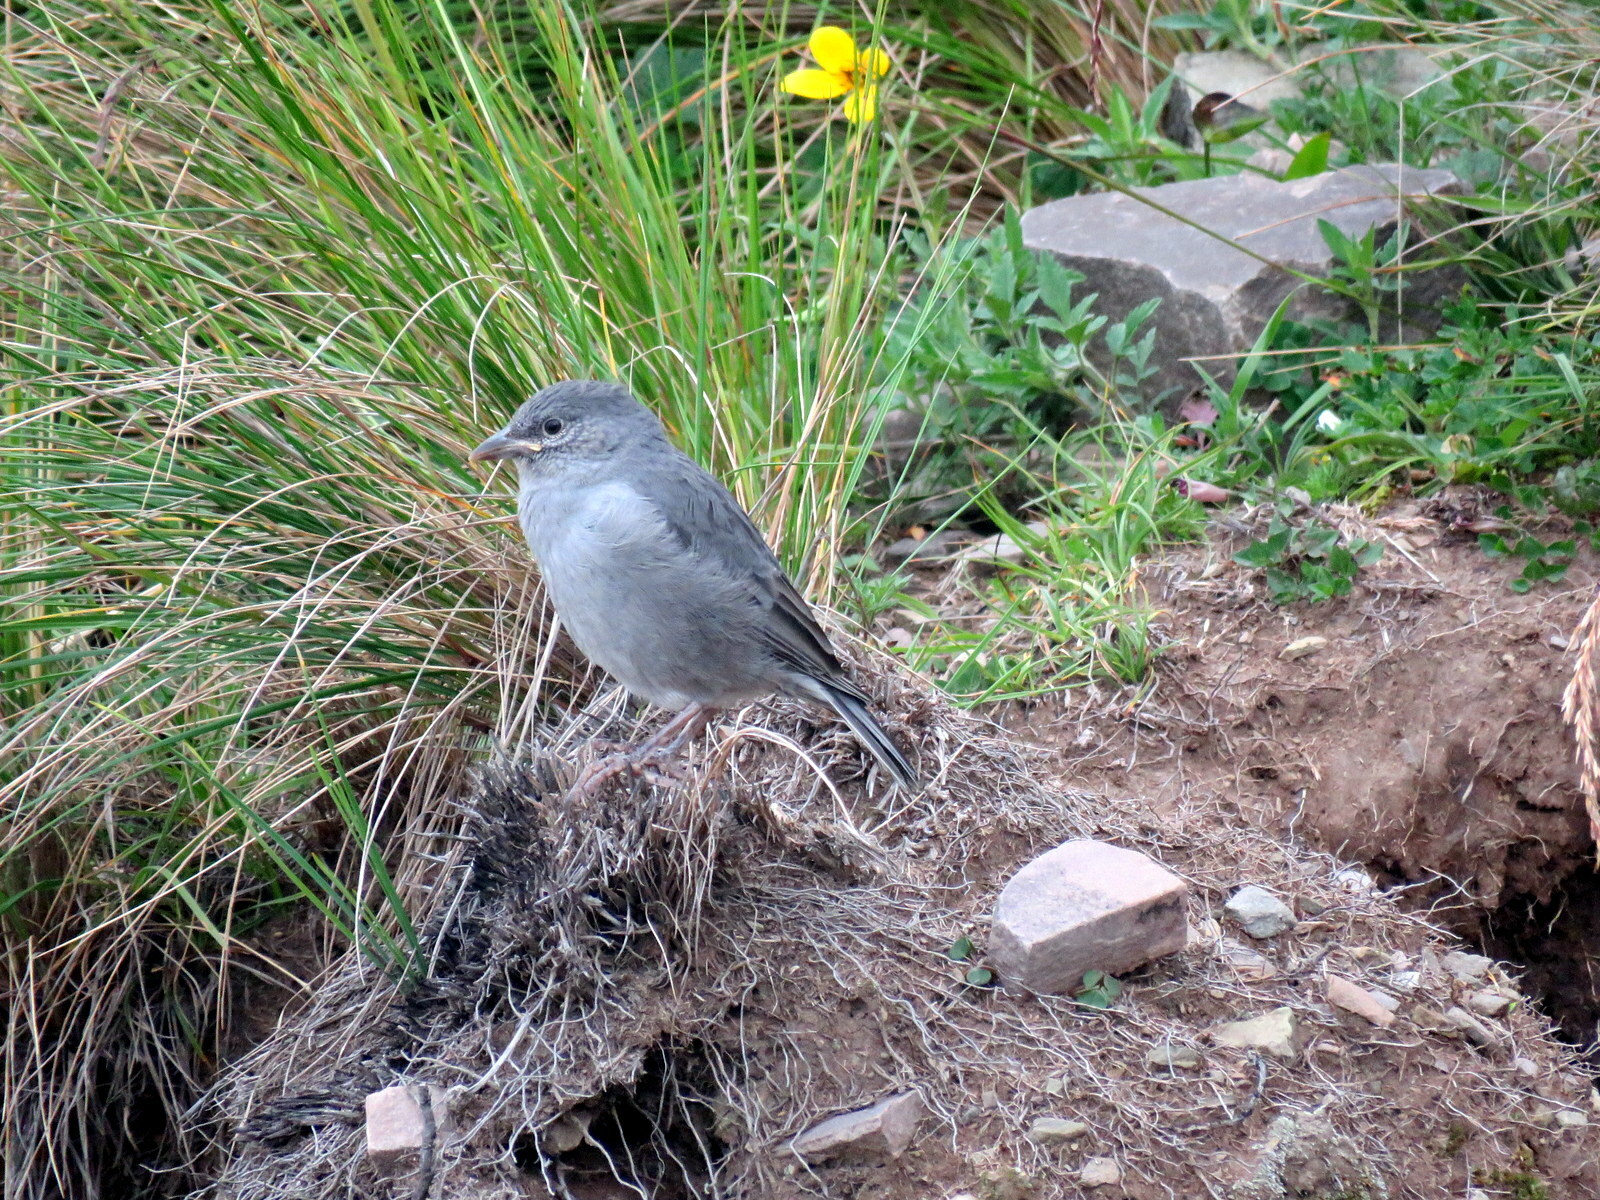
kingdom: Animalia
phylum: Chordata
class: Aves
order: Passeriformes
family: Thraupidae
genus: Idiopsar
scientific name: Idiopsar brachyurus
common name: Short-tailed finch
